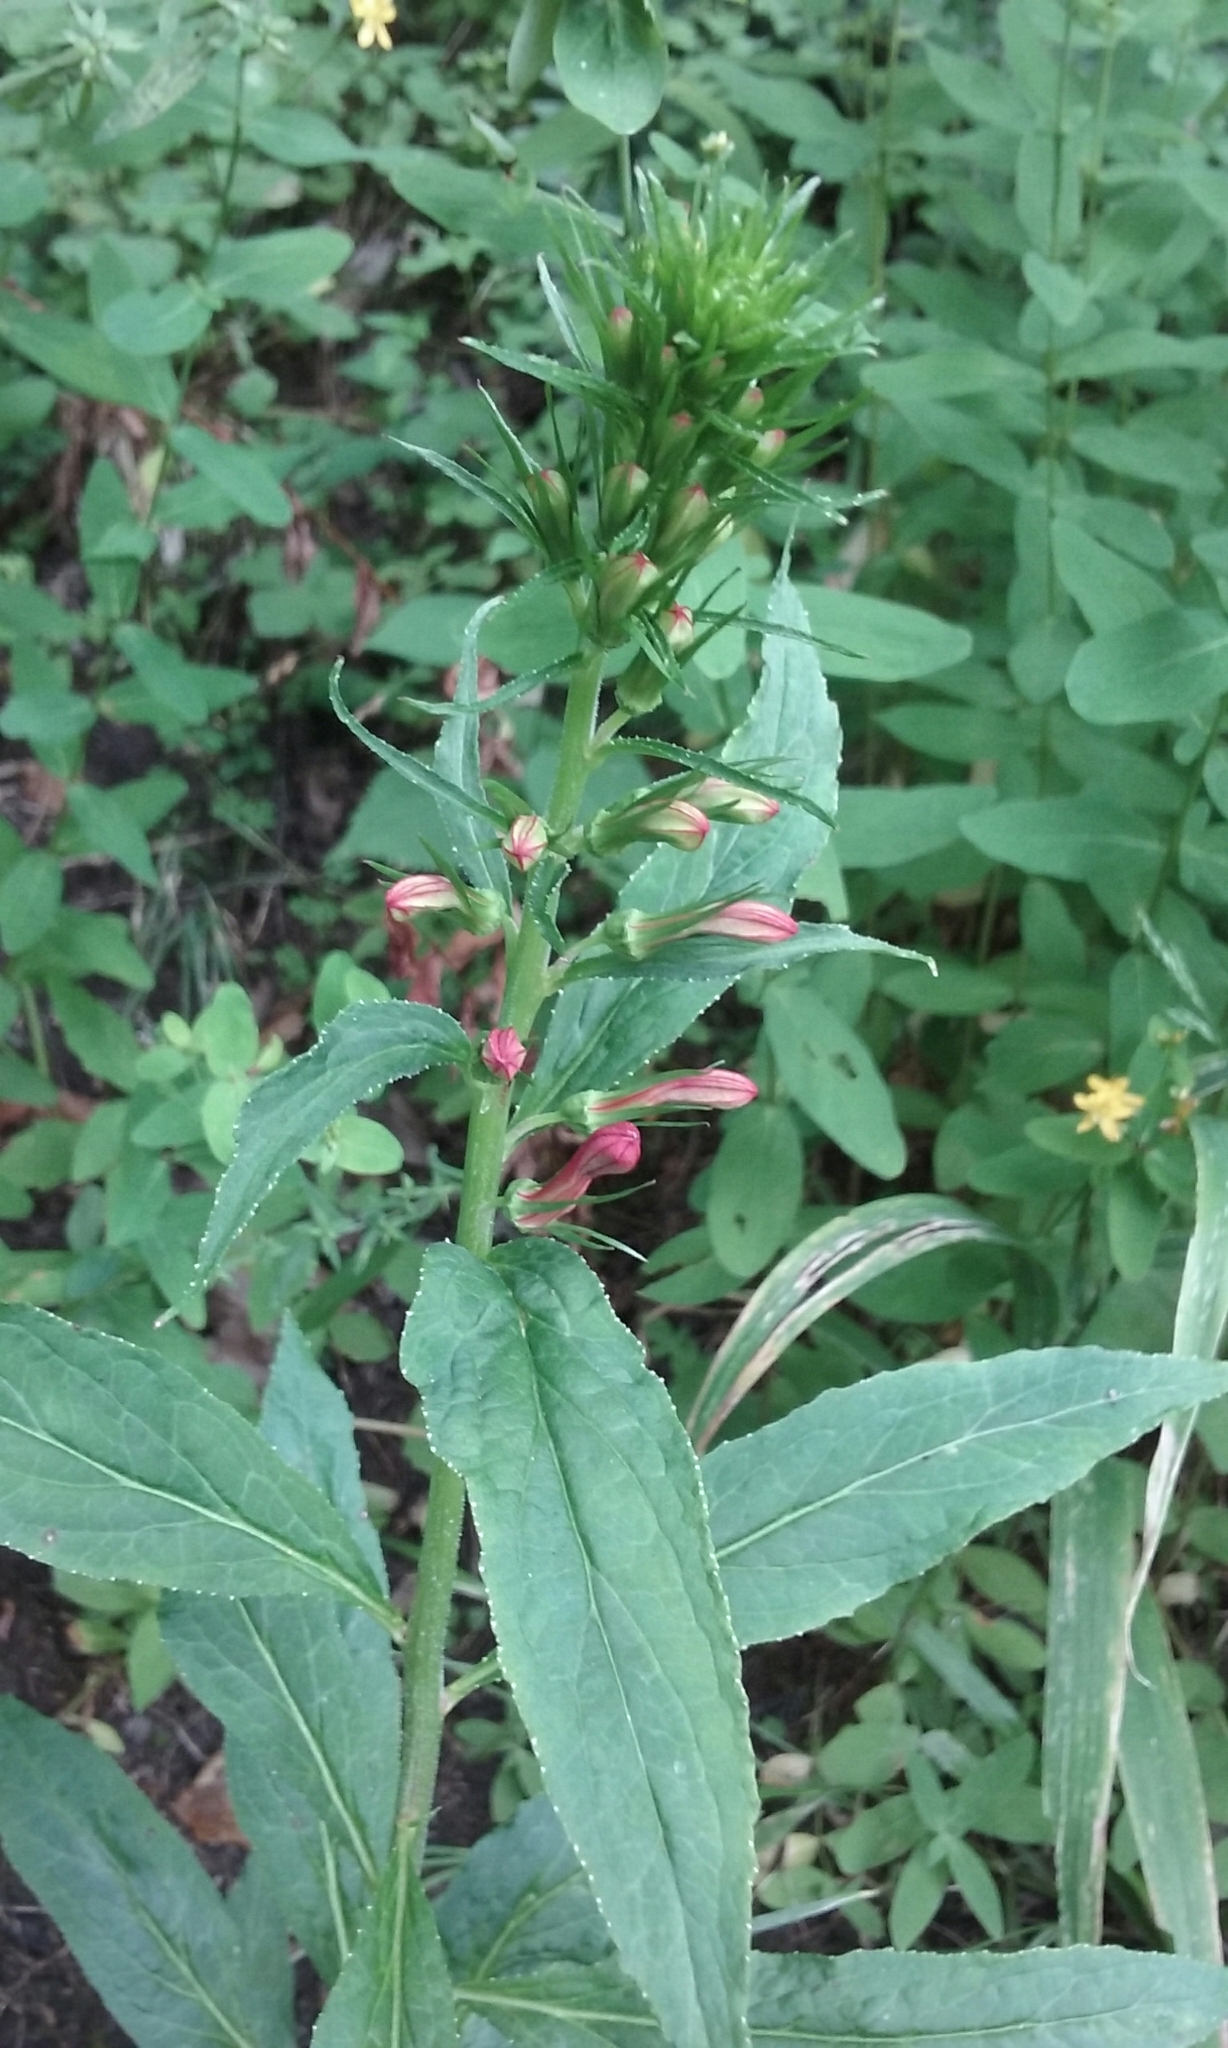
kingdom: Plantae
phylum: Tracheophyta
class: Magnoliopsida
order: Asterales
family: Campanulaceae
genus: Lobelia
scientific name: Lobelia cardinalis
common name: Cardinal flower
